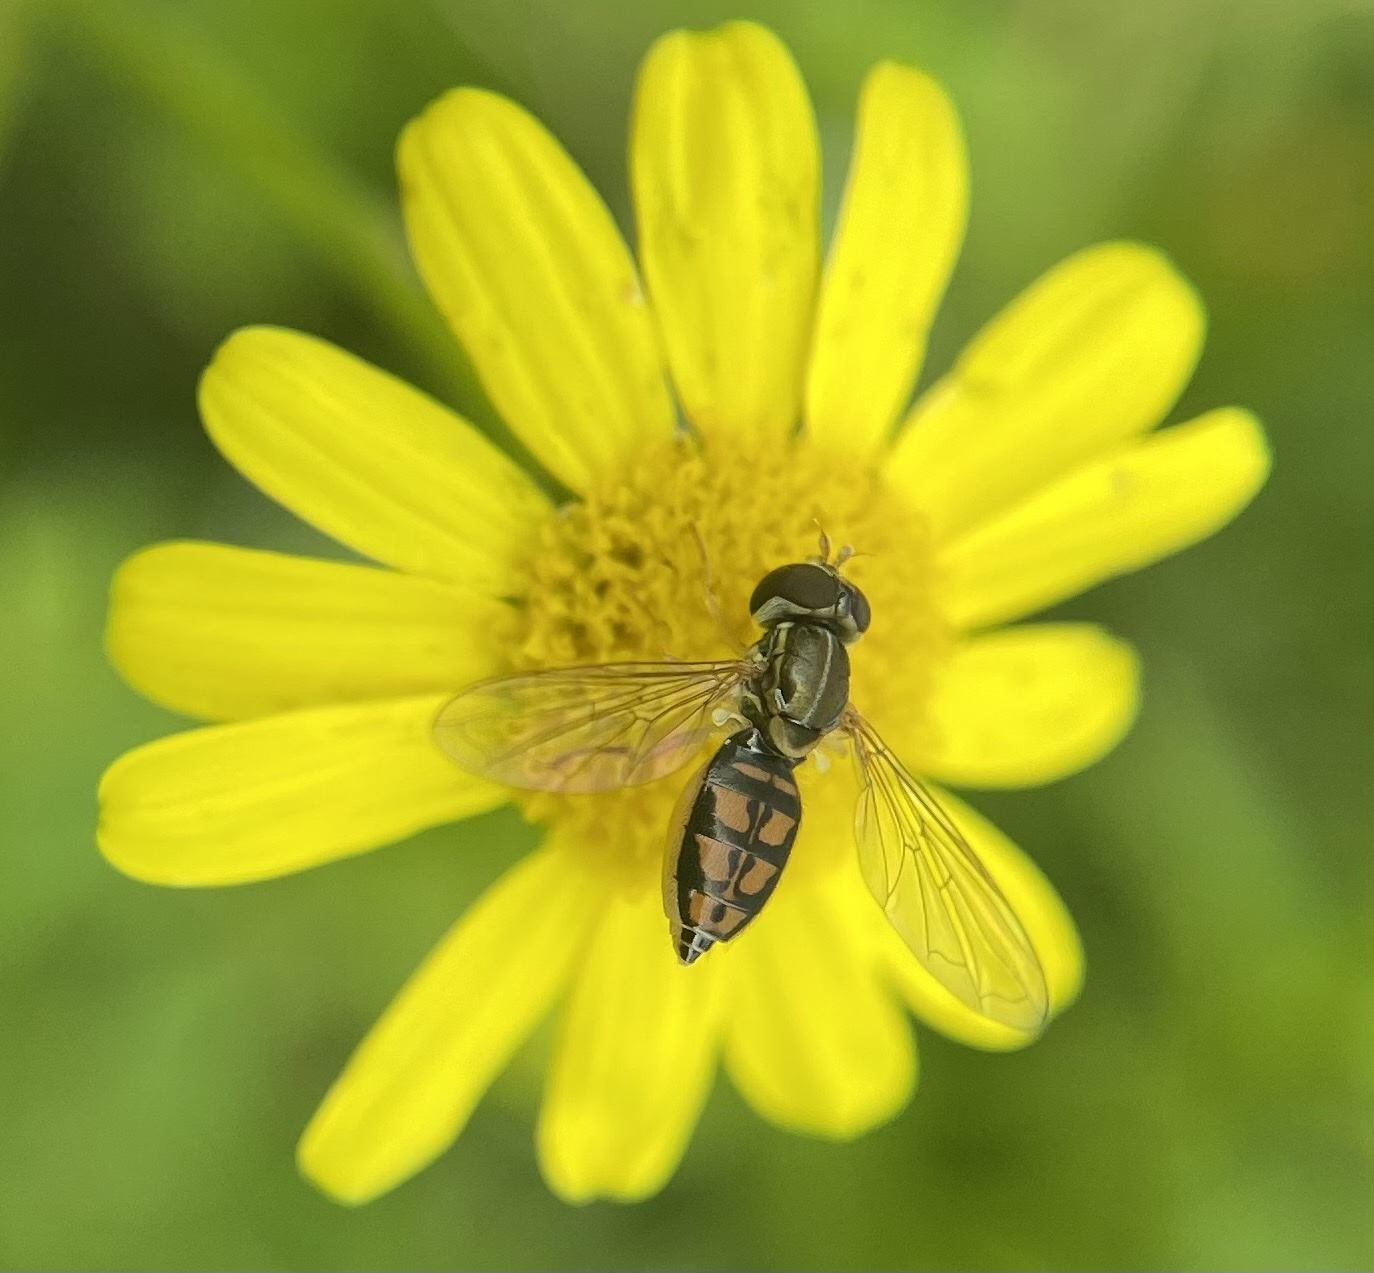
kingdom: Animalia
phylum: Arthropoda
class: Insecta
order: Diptera
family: Syrphidae
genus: Toxomerus
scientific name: Toxomerus marginatus
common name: Syrphid fly
